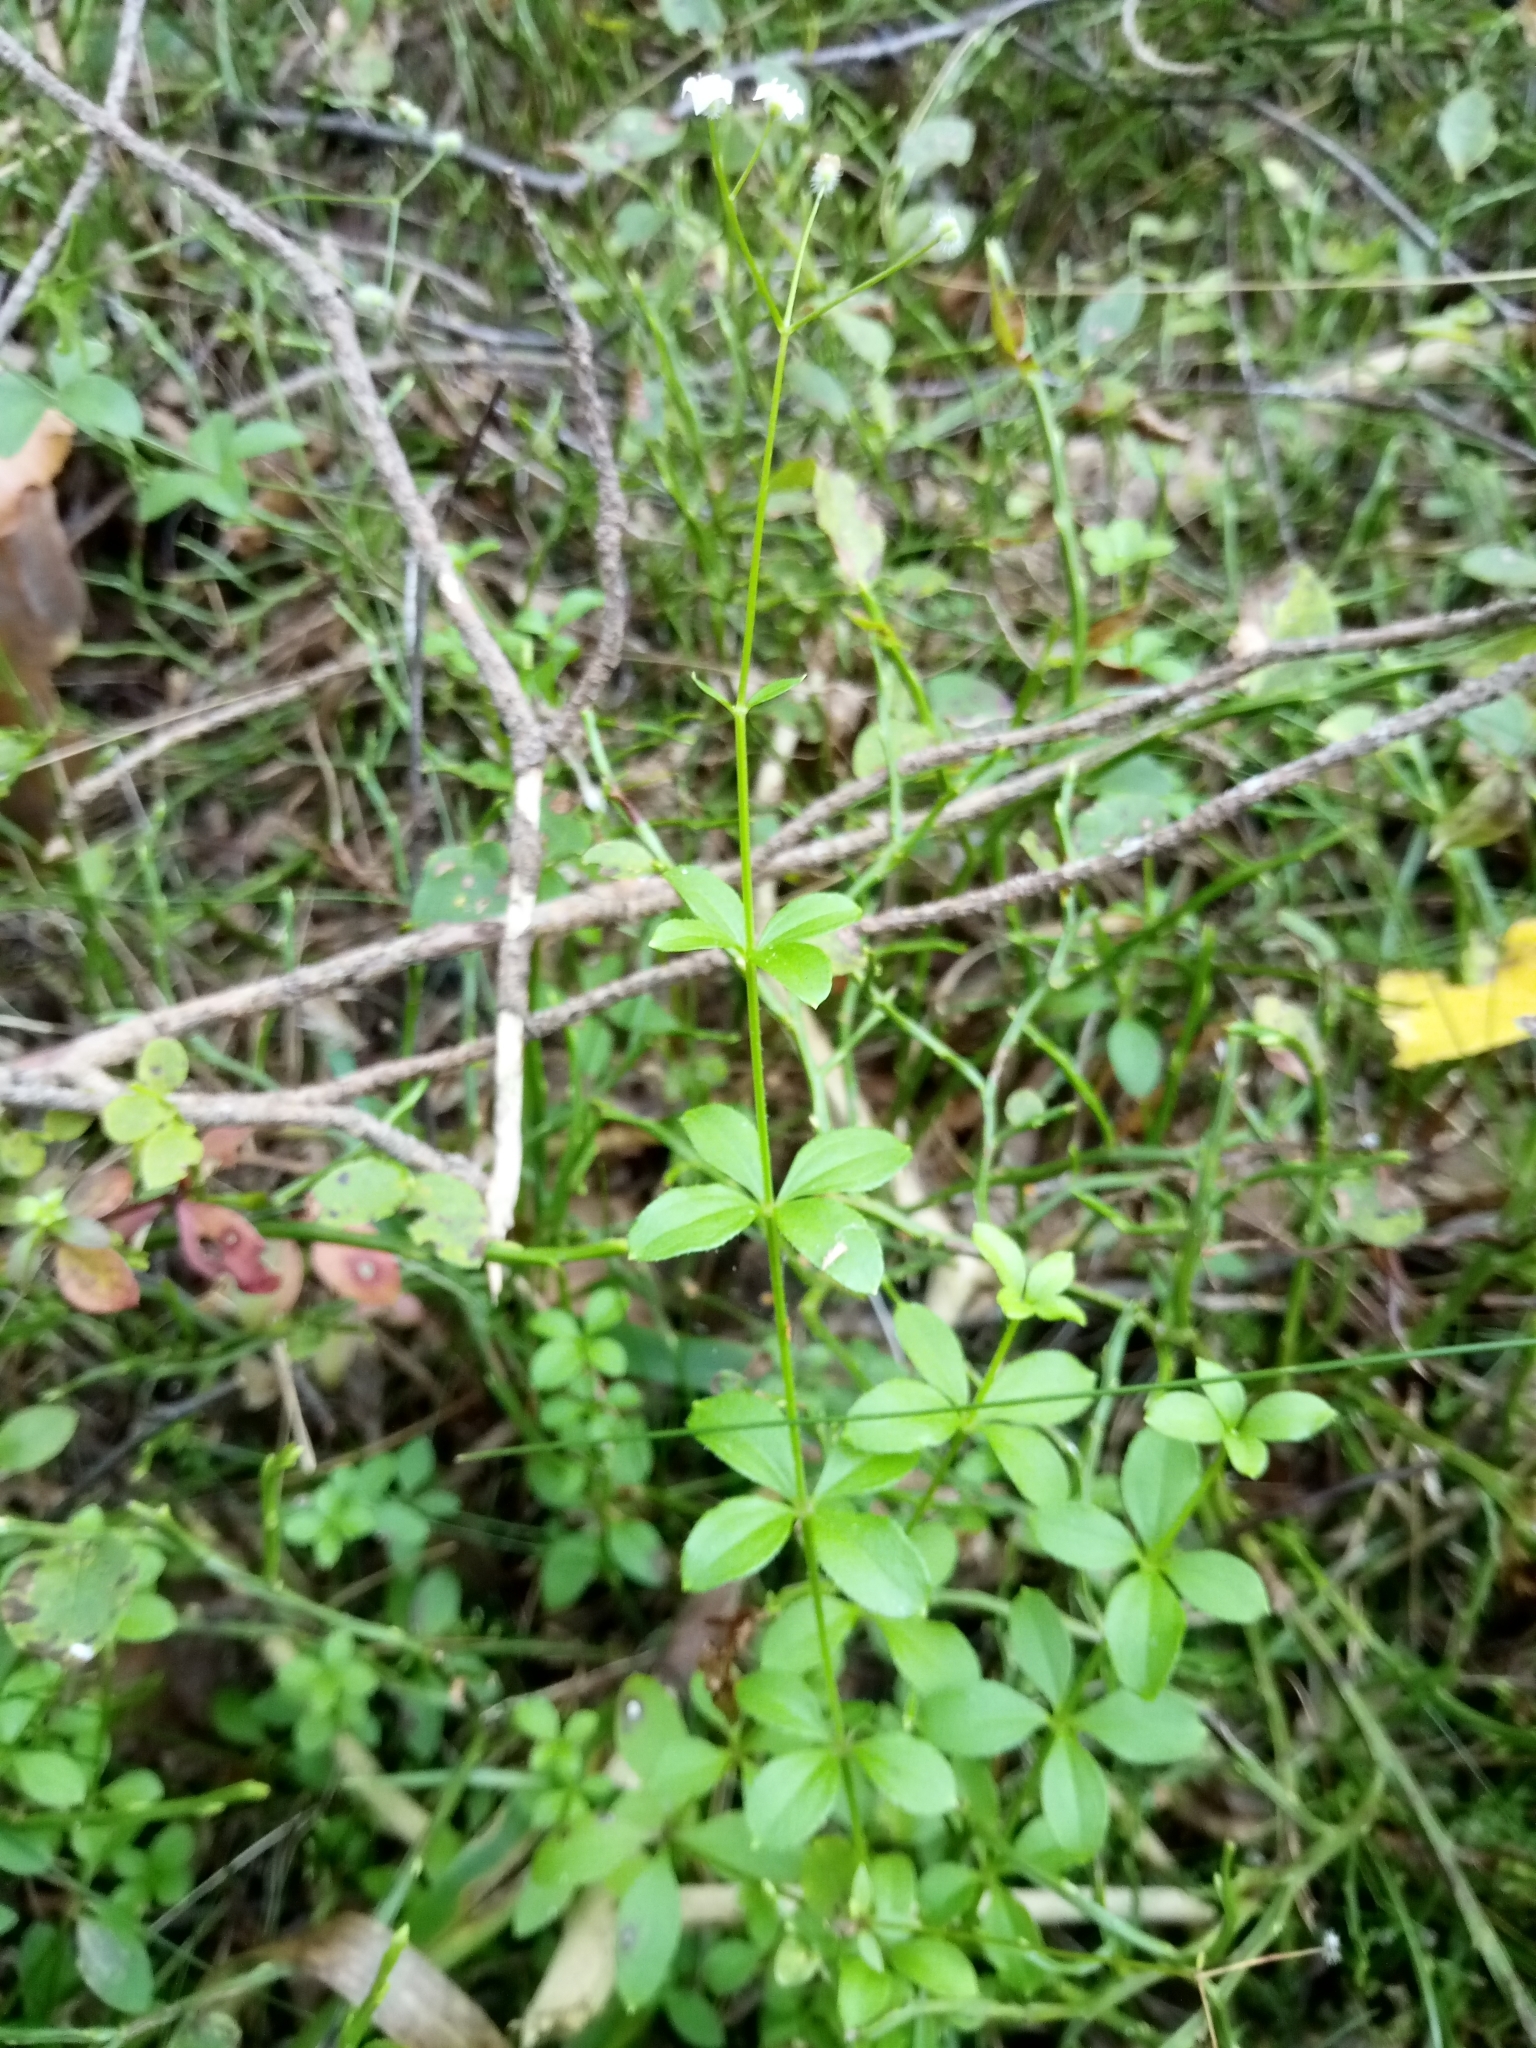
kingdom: Plantae
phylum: Tracheophyta
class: Magnoliopsida
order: Gentianales
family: Rubiaceae
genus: Galium
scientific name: Galium rotundifolium
